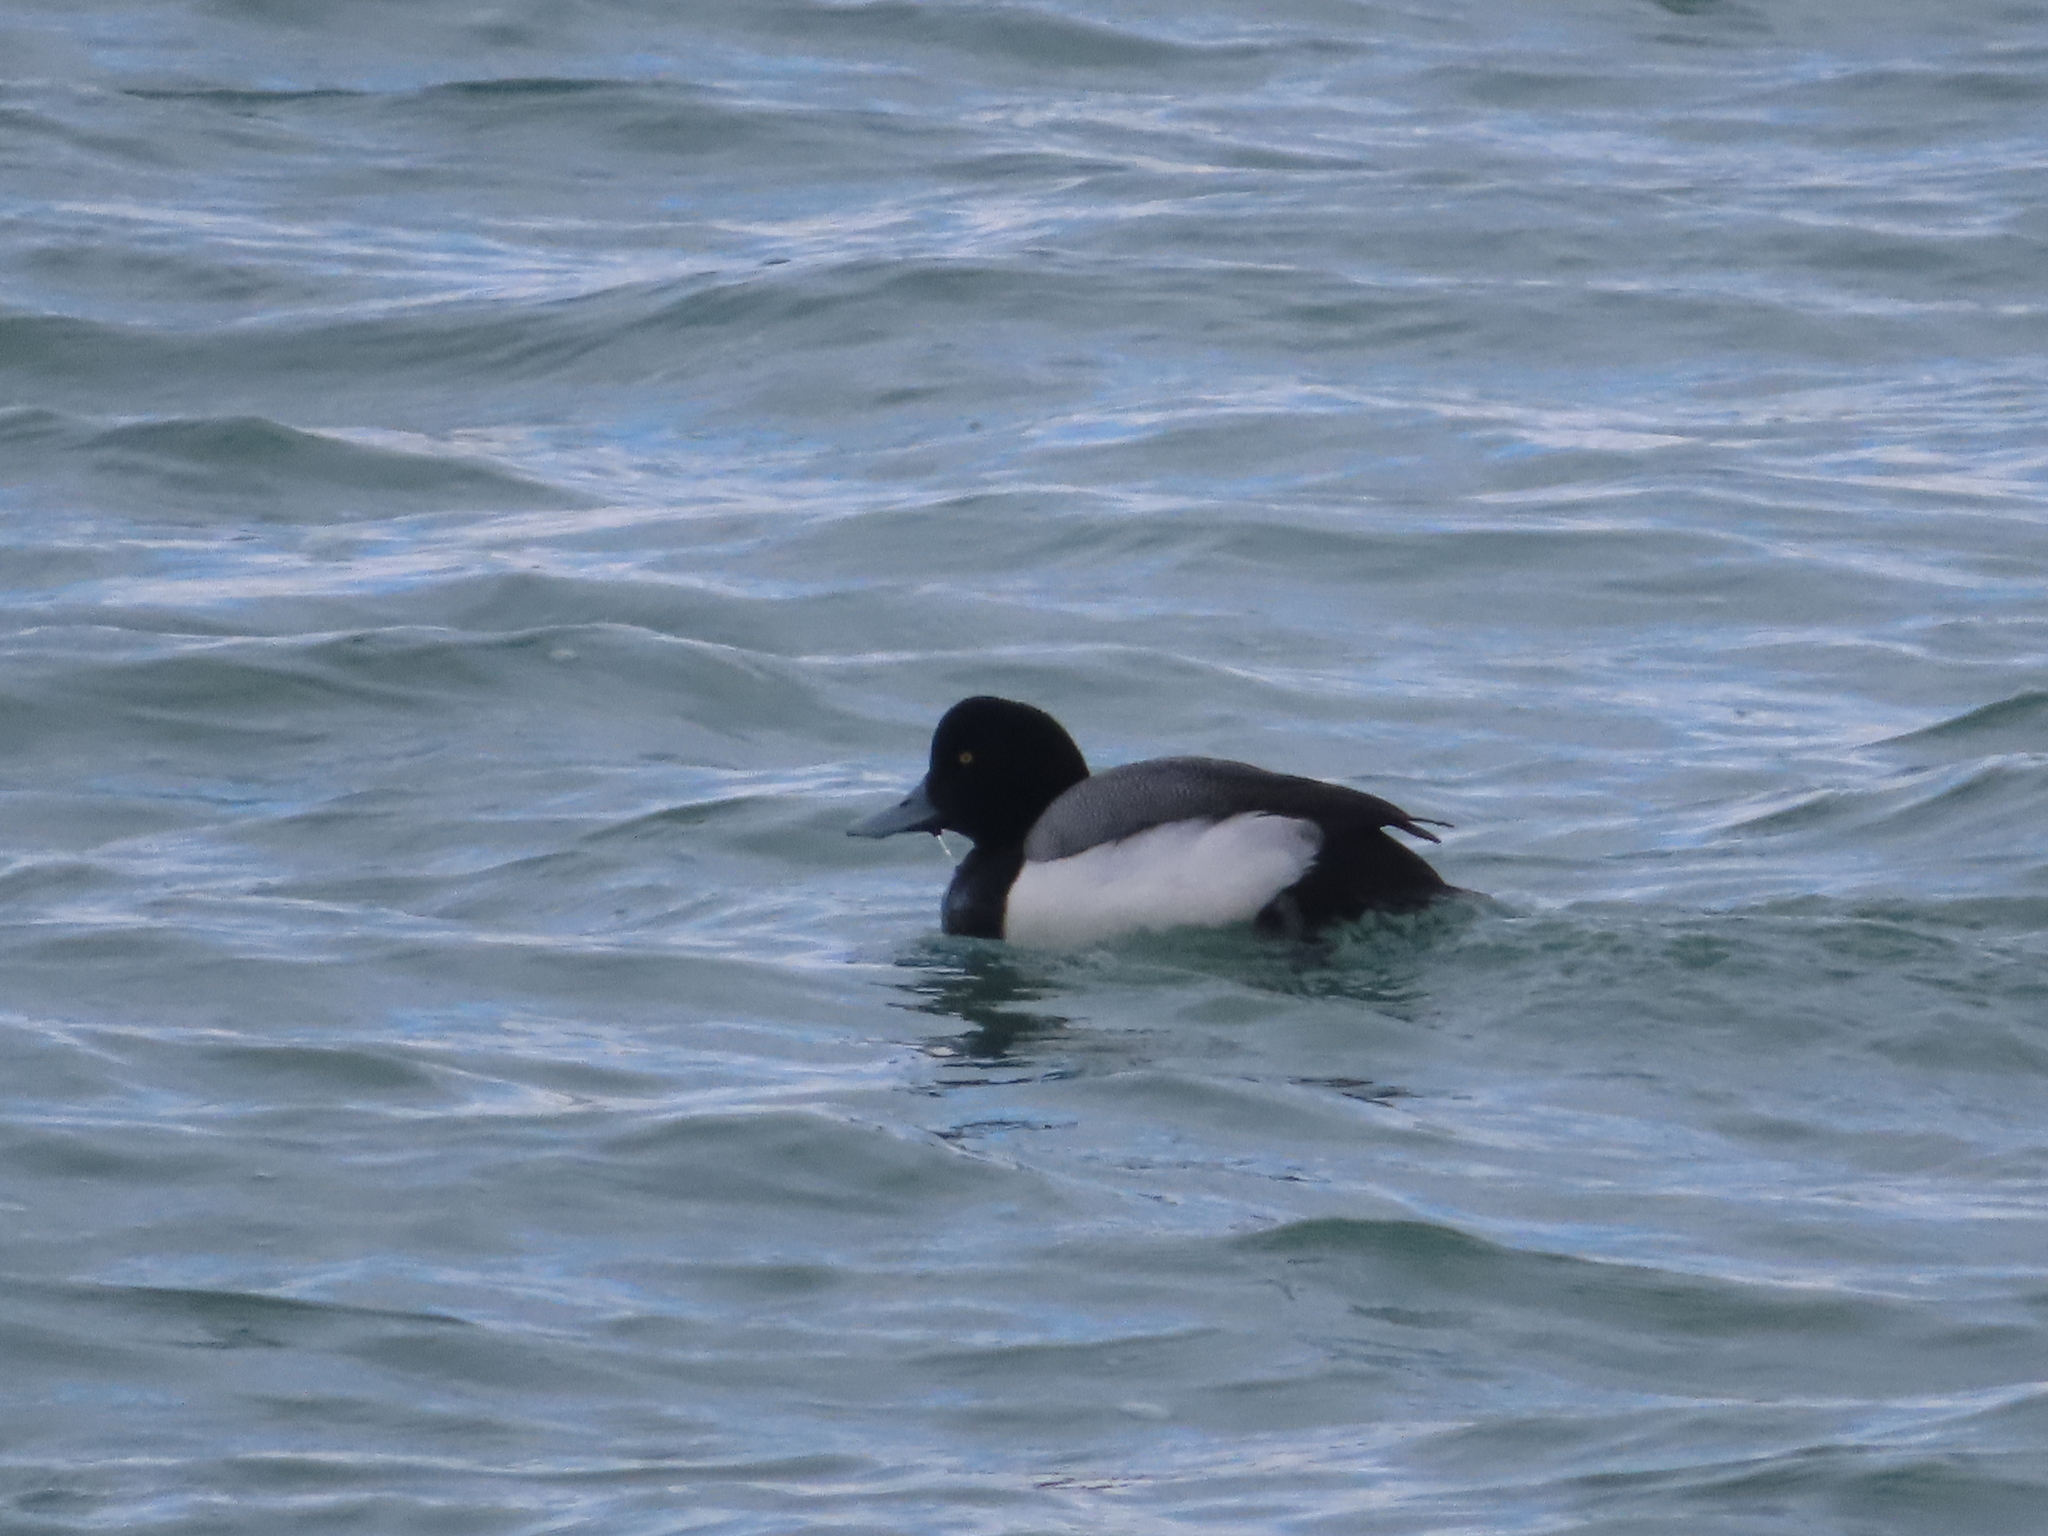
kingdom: Animalia
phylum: Chordata
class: Aves
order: Anseriformes
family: Anatidae
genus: Aythya
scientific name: Aythya marila
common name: Greater scaup
